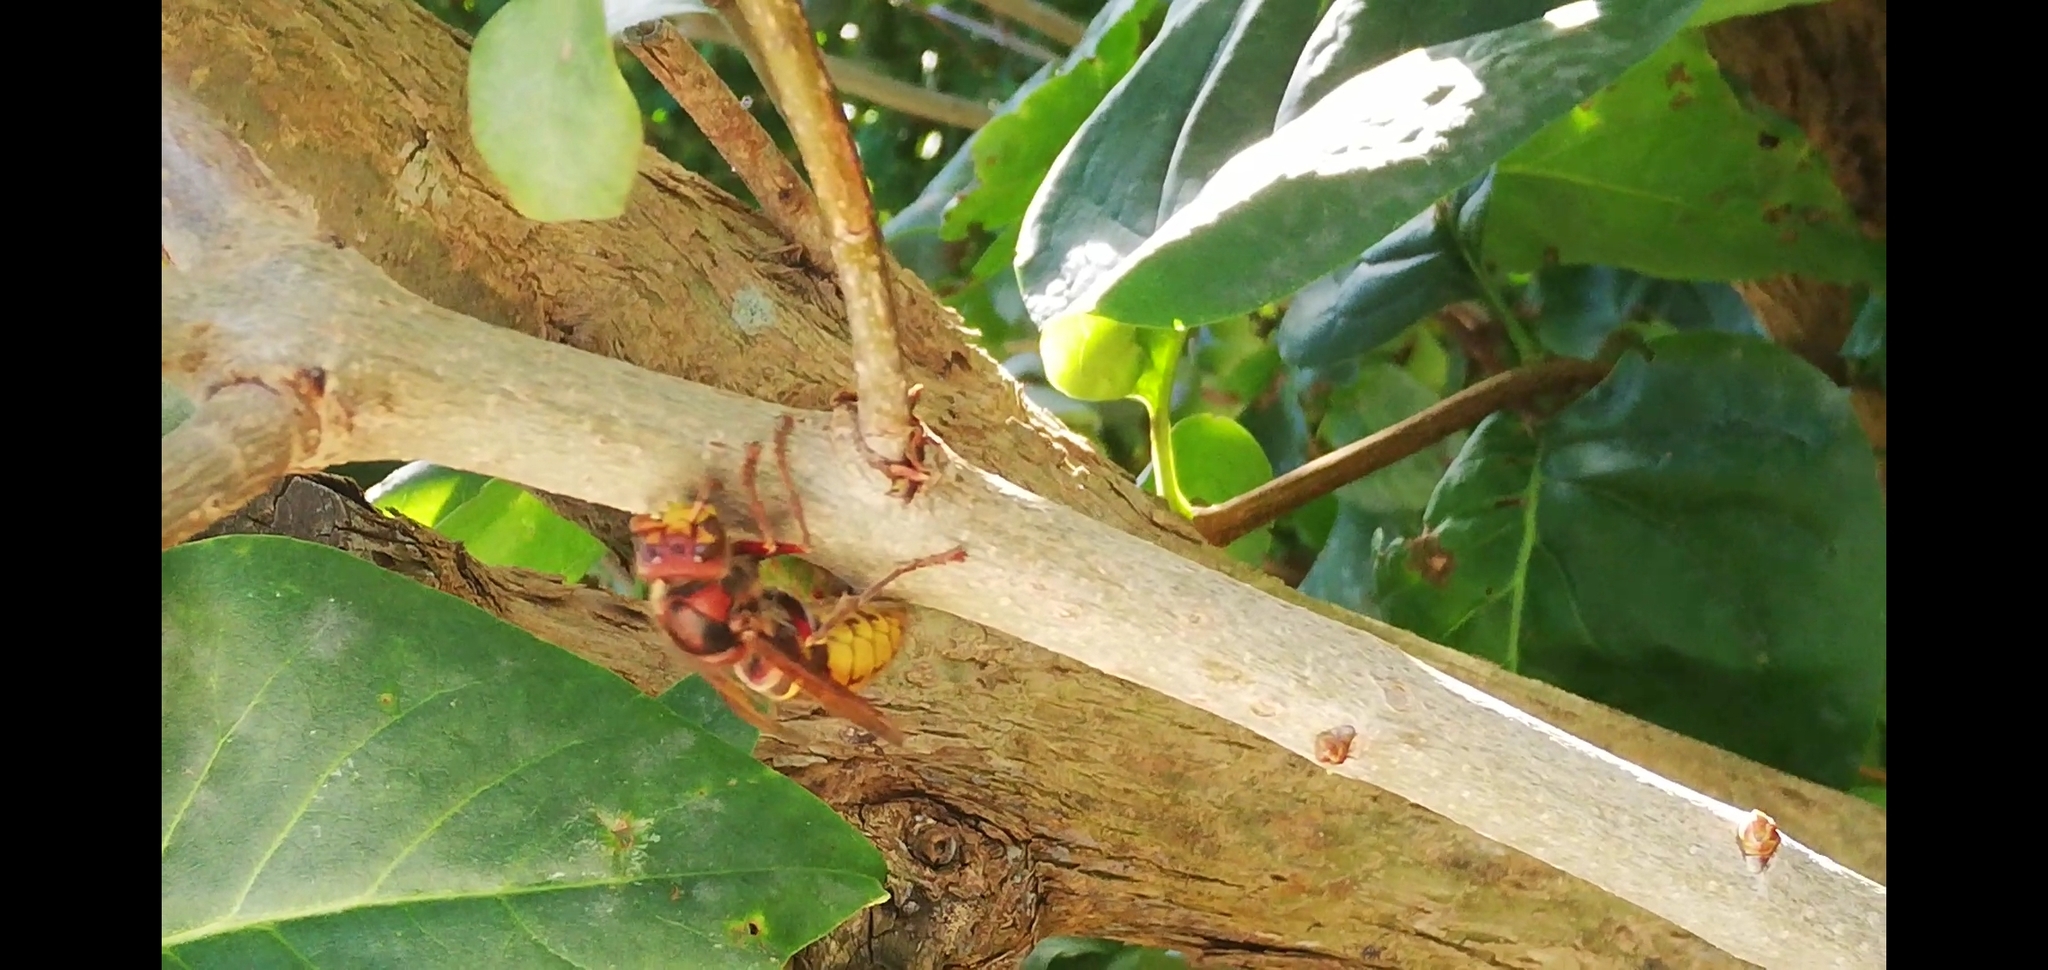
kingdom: Animalia
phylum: Arthropoda
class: Insecta
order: Hymenoptera
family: Vespidae
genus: Vespa
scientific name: Vespa crabro
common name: Hornet
